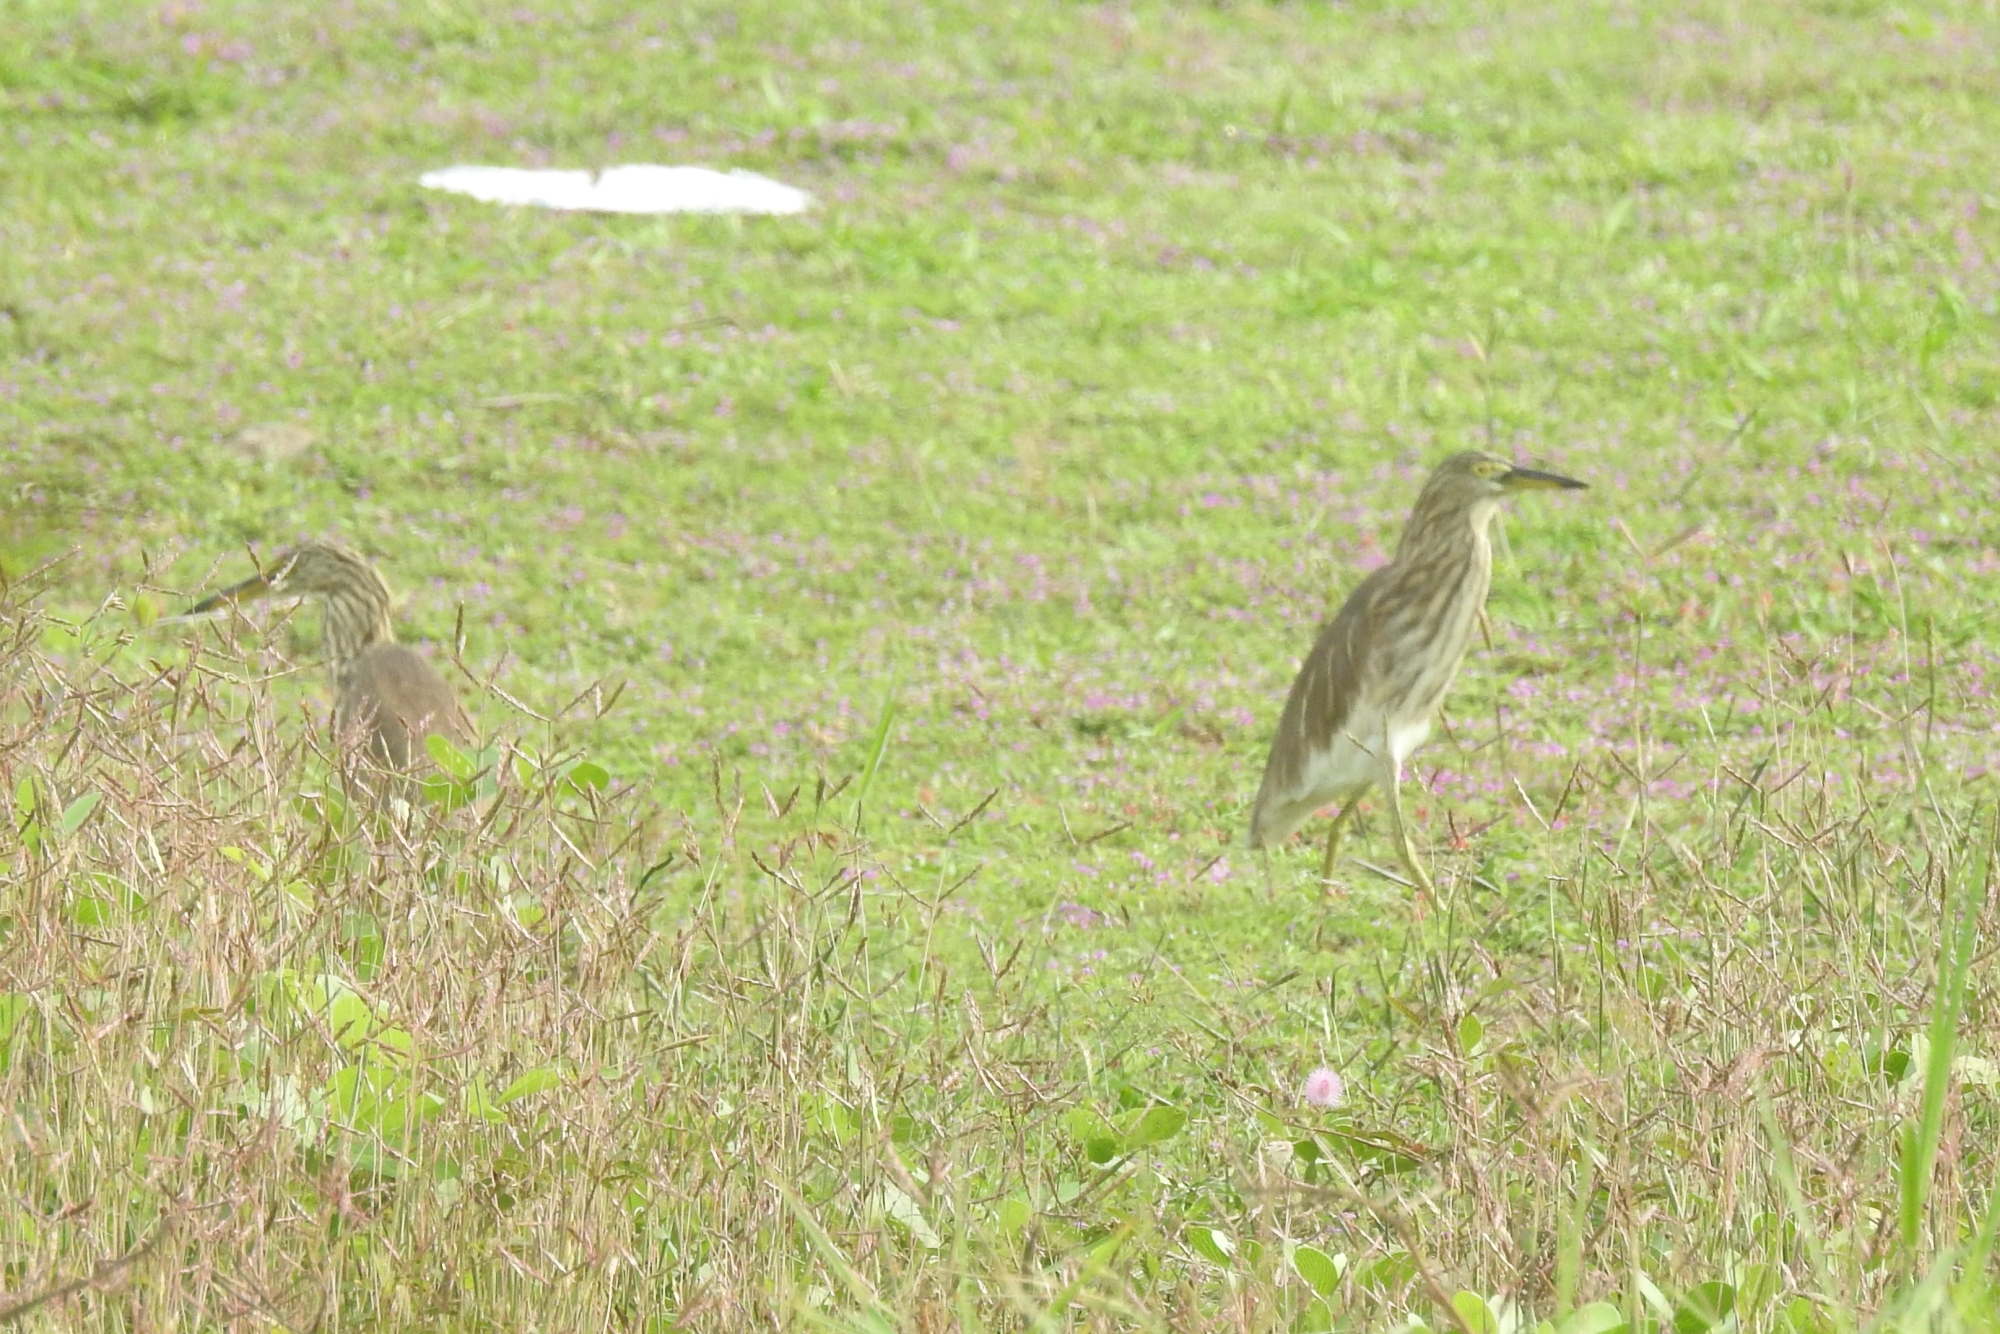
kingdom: Animalia
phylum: Chordata
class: Aves
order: Pelecaniformes
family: Ardeidae
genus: Ardeola
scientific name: Ardeola grayii
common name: Indian pond heron
